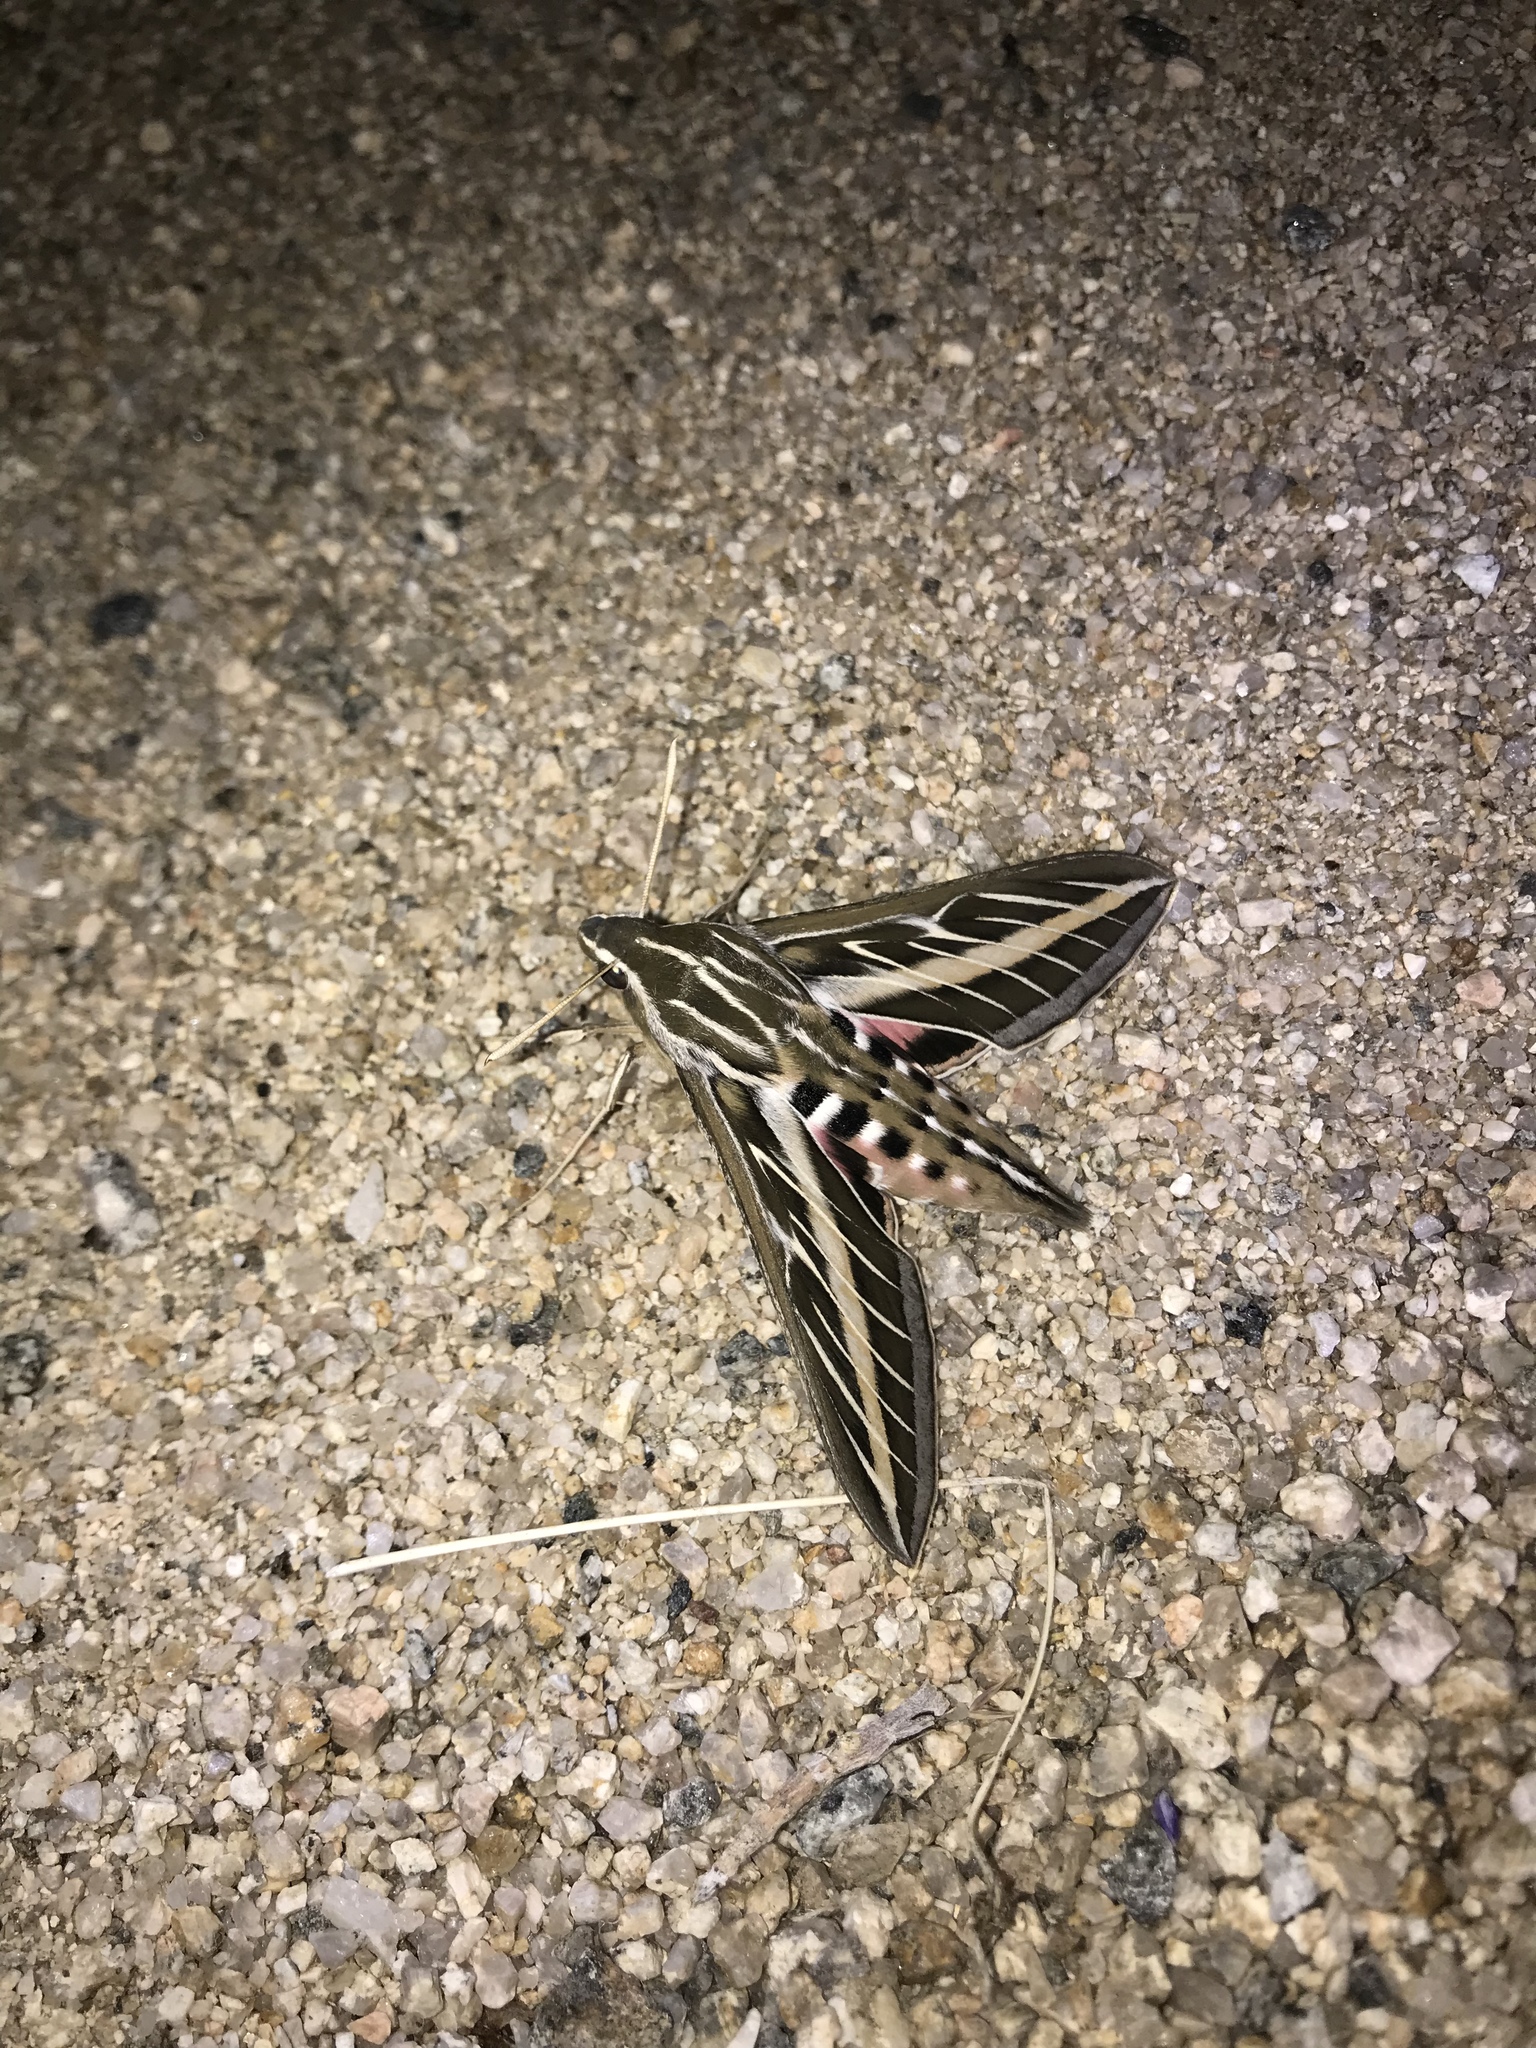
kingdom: Animalia
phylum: Arthropoda
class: Insecta
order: Lepidoptera
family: Sphingidae
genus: Hyles
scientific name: Hyles lineata
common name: White-lined sphinx
